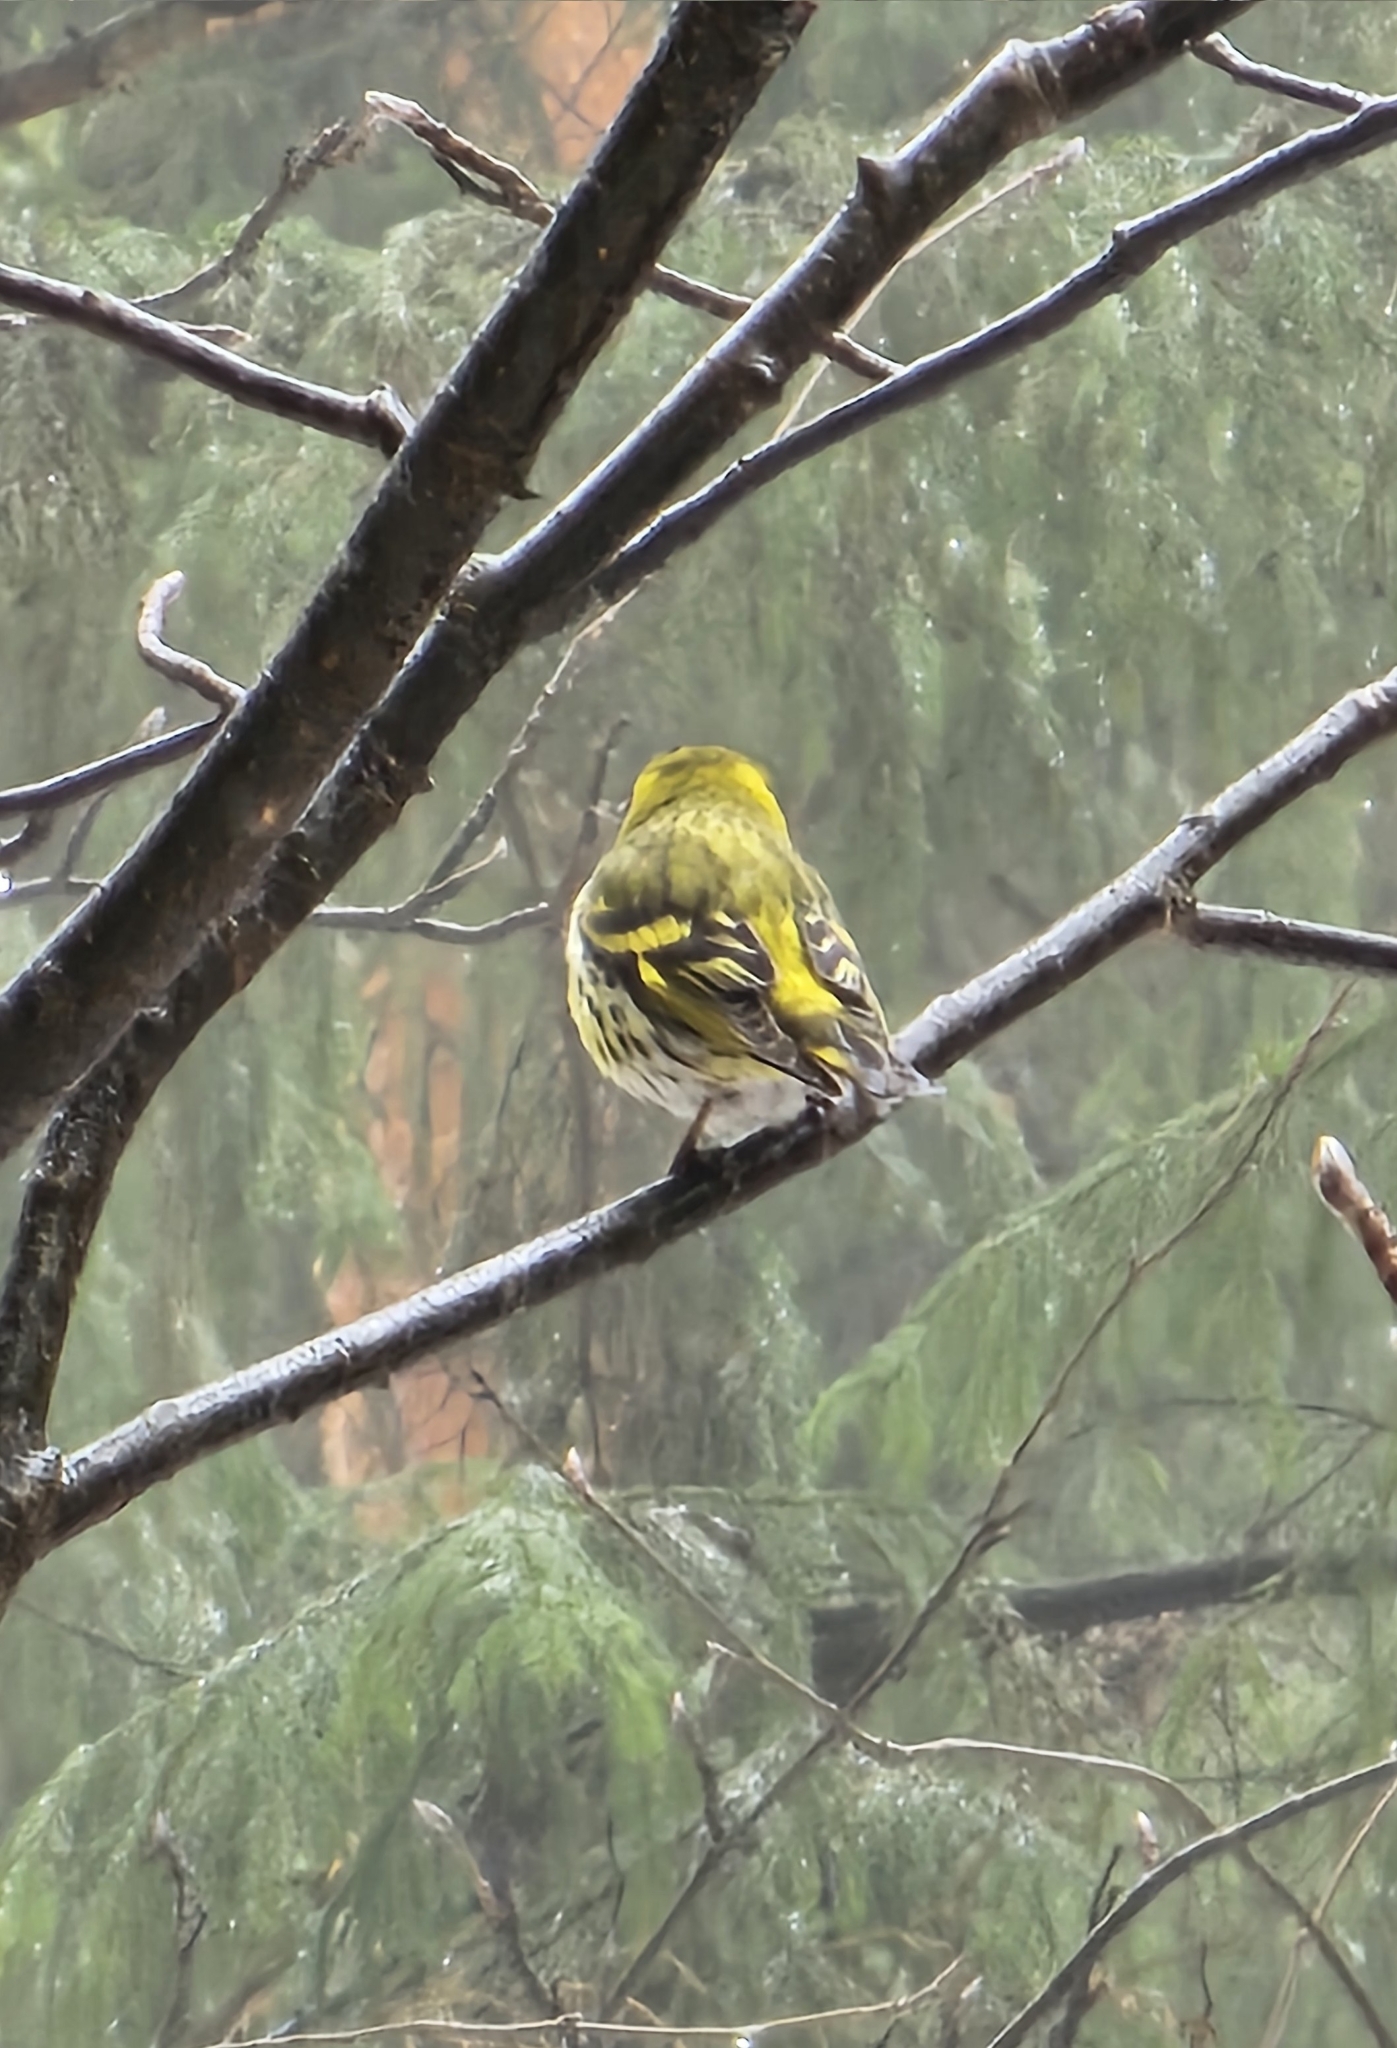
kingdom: Animalia
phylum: Chordata
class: Aves
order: Passeriformes
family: Fringillidae
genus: Spinus
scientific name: Spinus spinus
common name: Eurasian siskin
